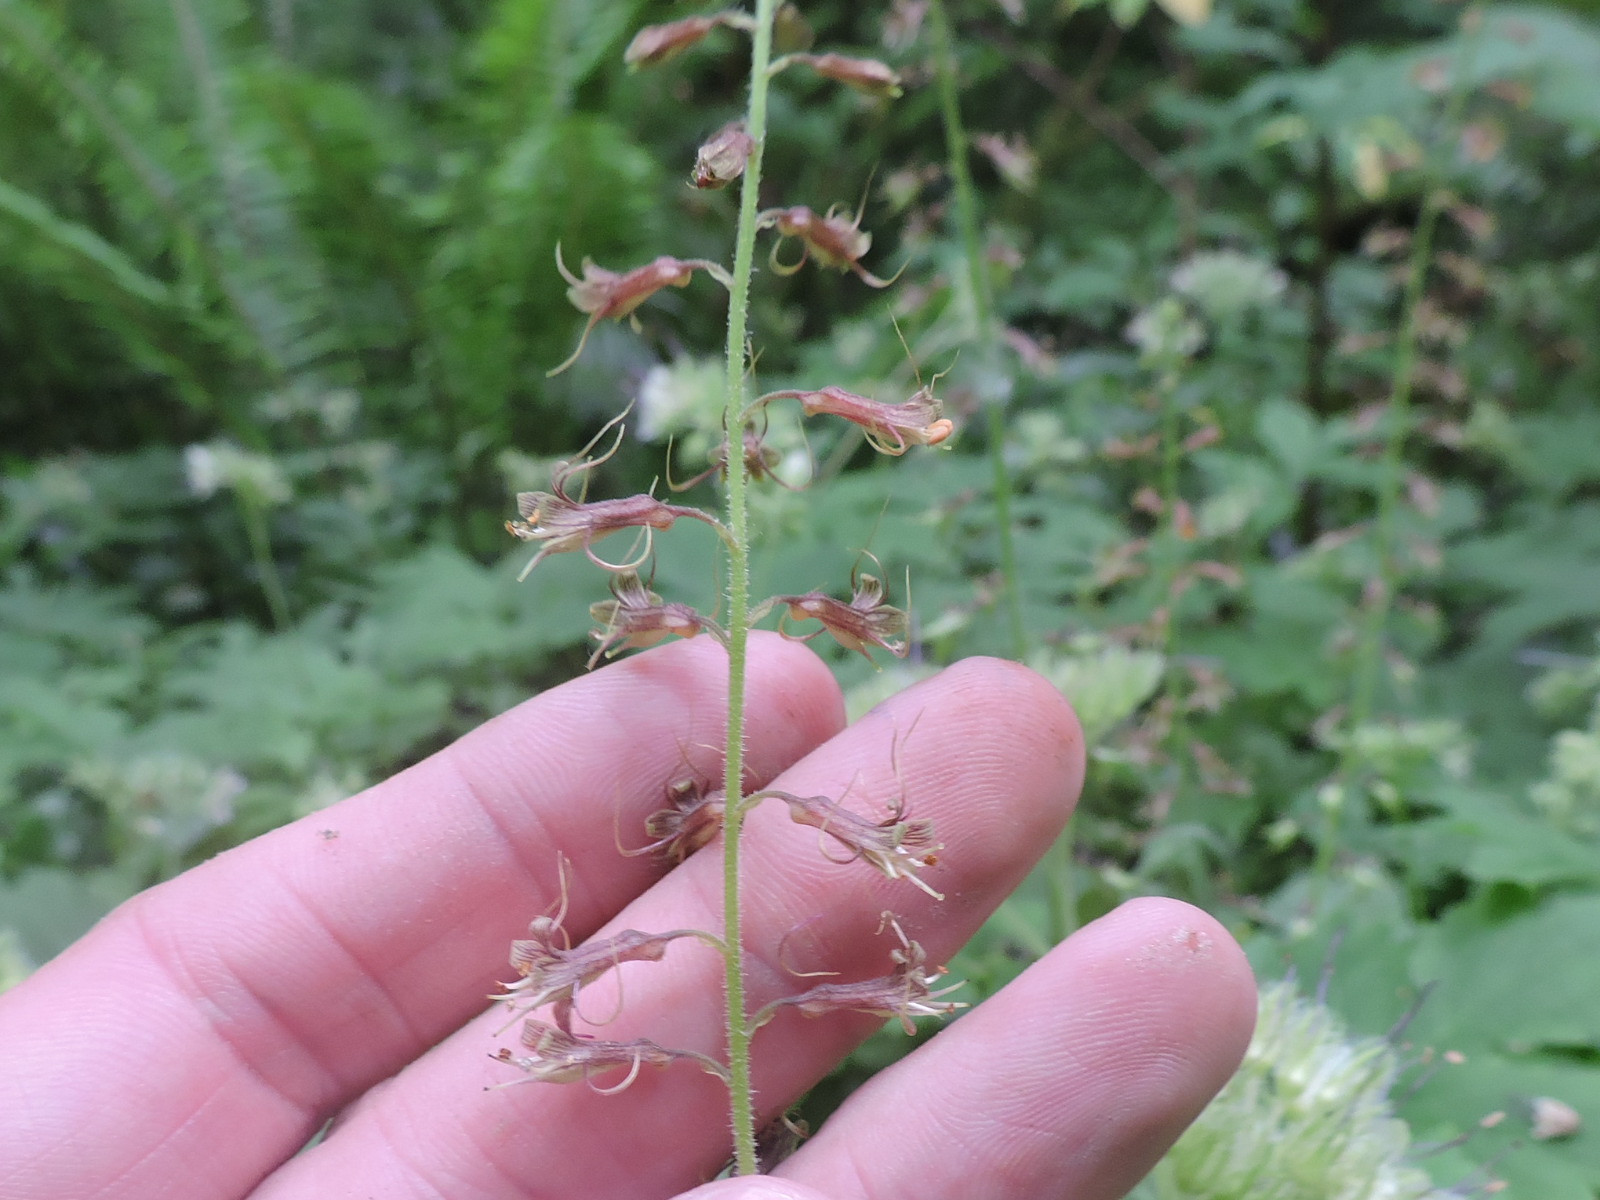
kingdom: Plantae
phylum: Tracheophyta
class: Magnoliopsida
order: Saxifragales
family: Saxifragaceae
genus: Tolmiea
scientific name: Tolmiea menziesii
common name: Pick-a-back-plant
